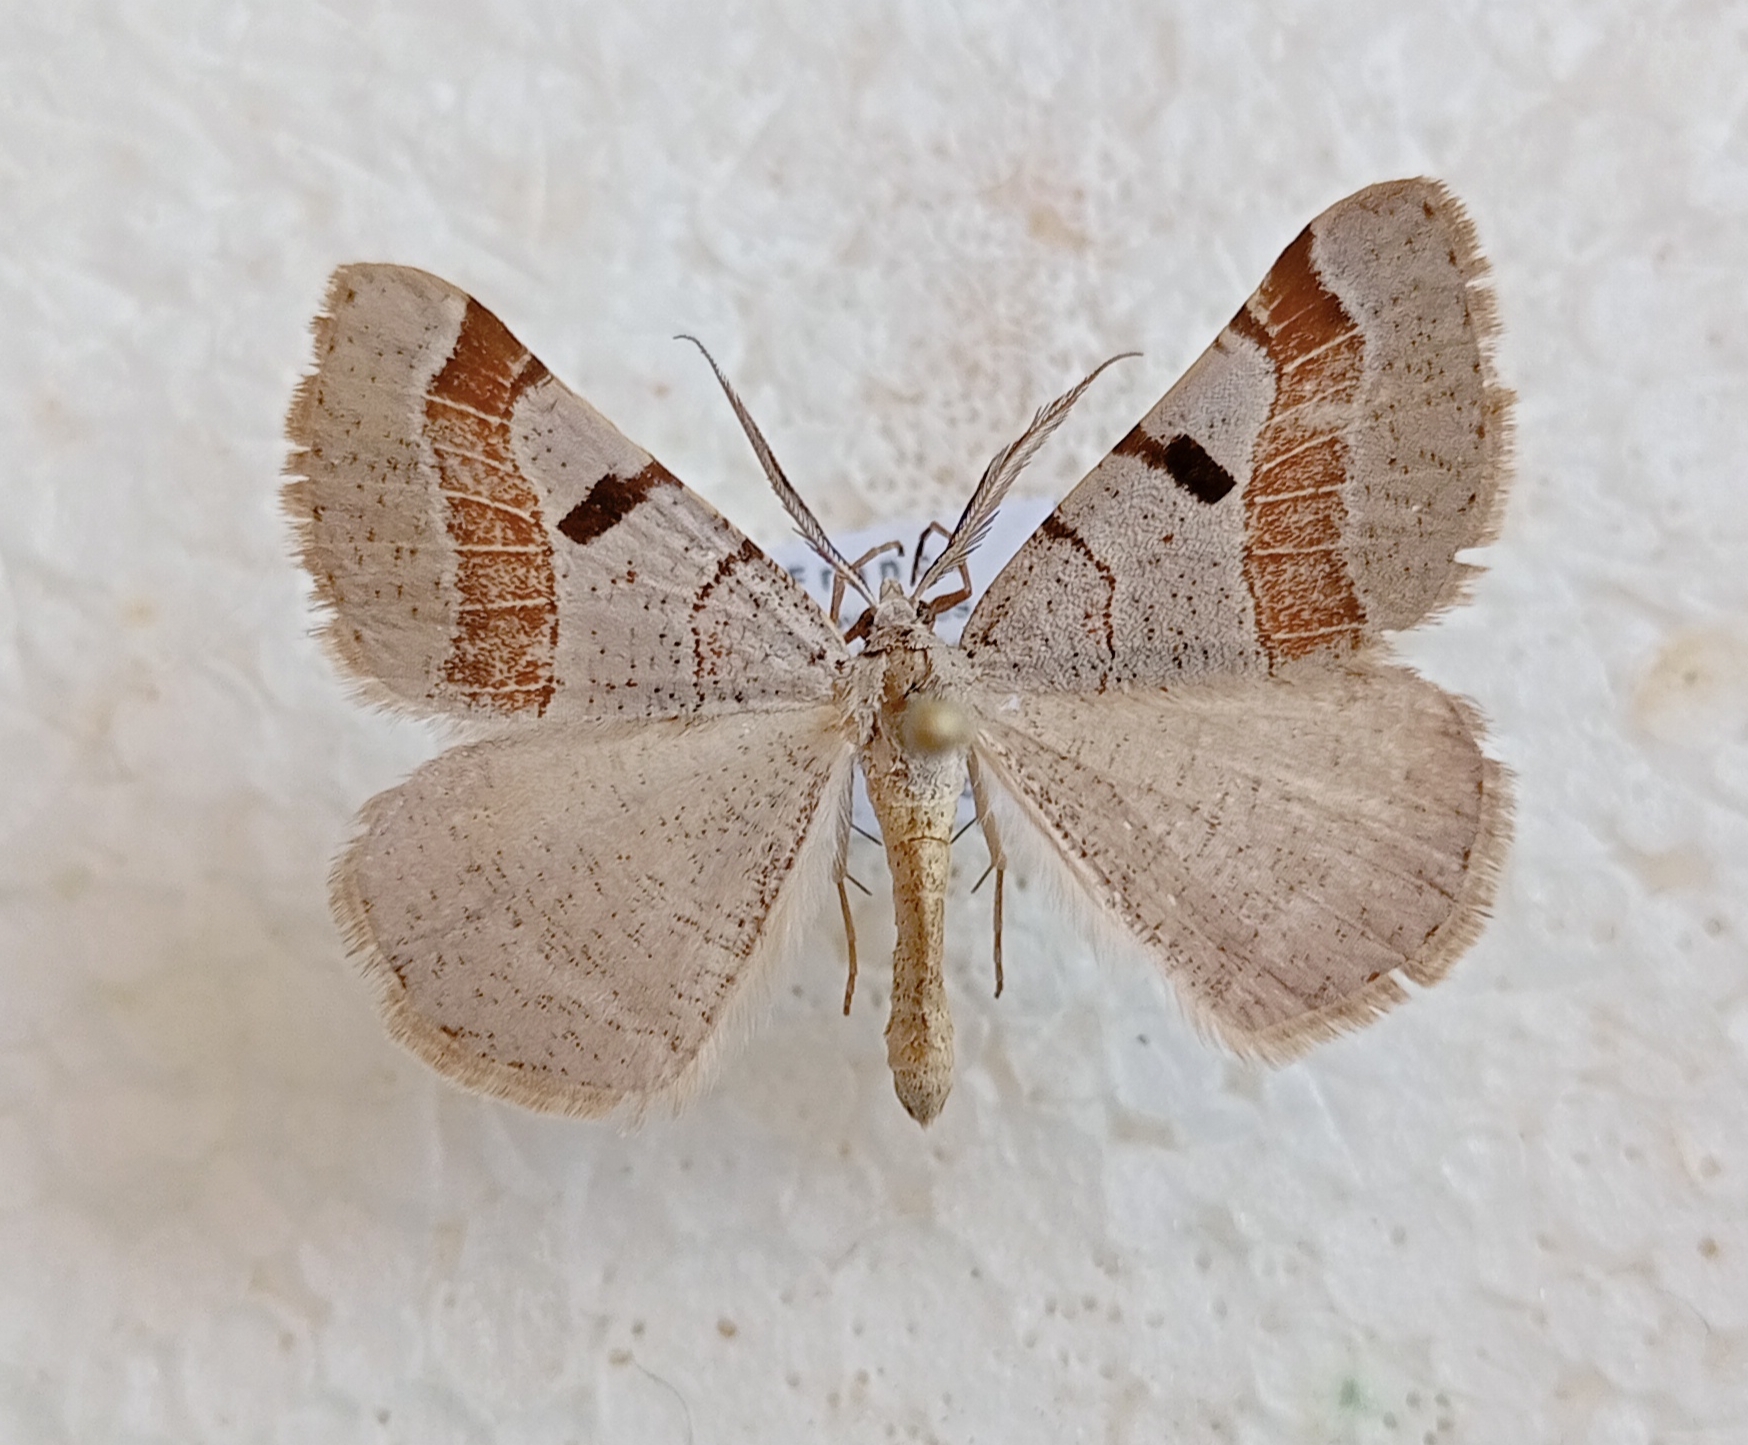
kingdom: Animalia
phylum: Arthropoda
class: Insecta
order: Lepidoptera
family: Geometridae
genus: Itame
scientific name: Itame vincularia
